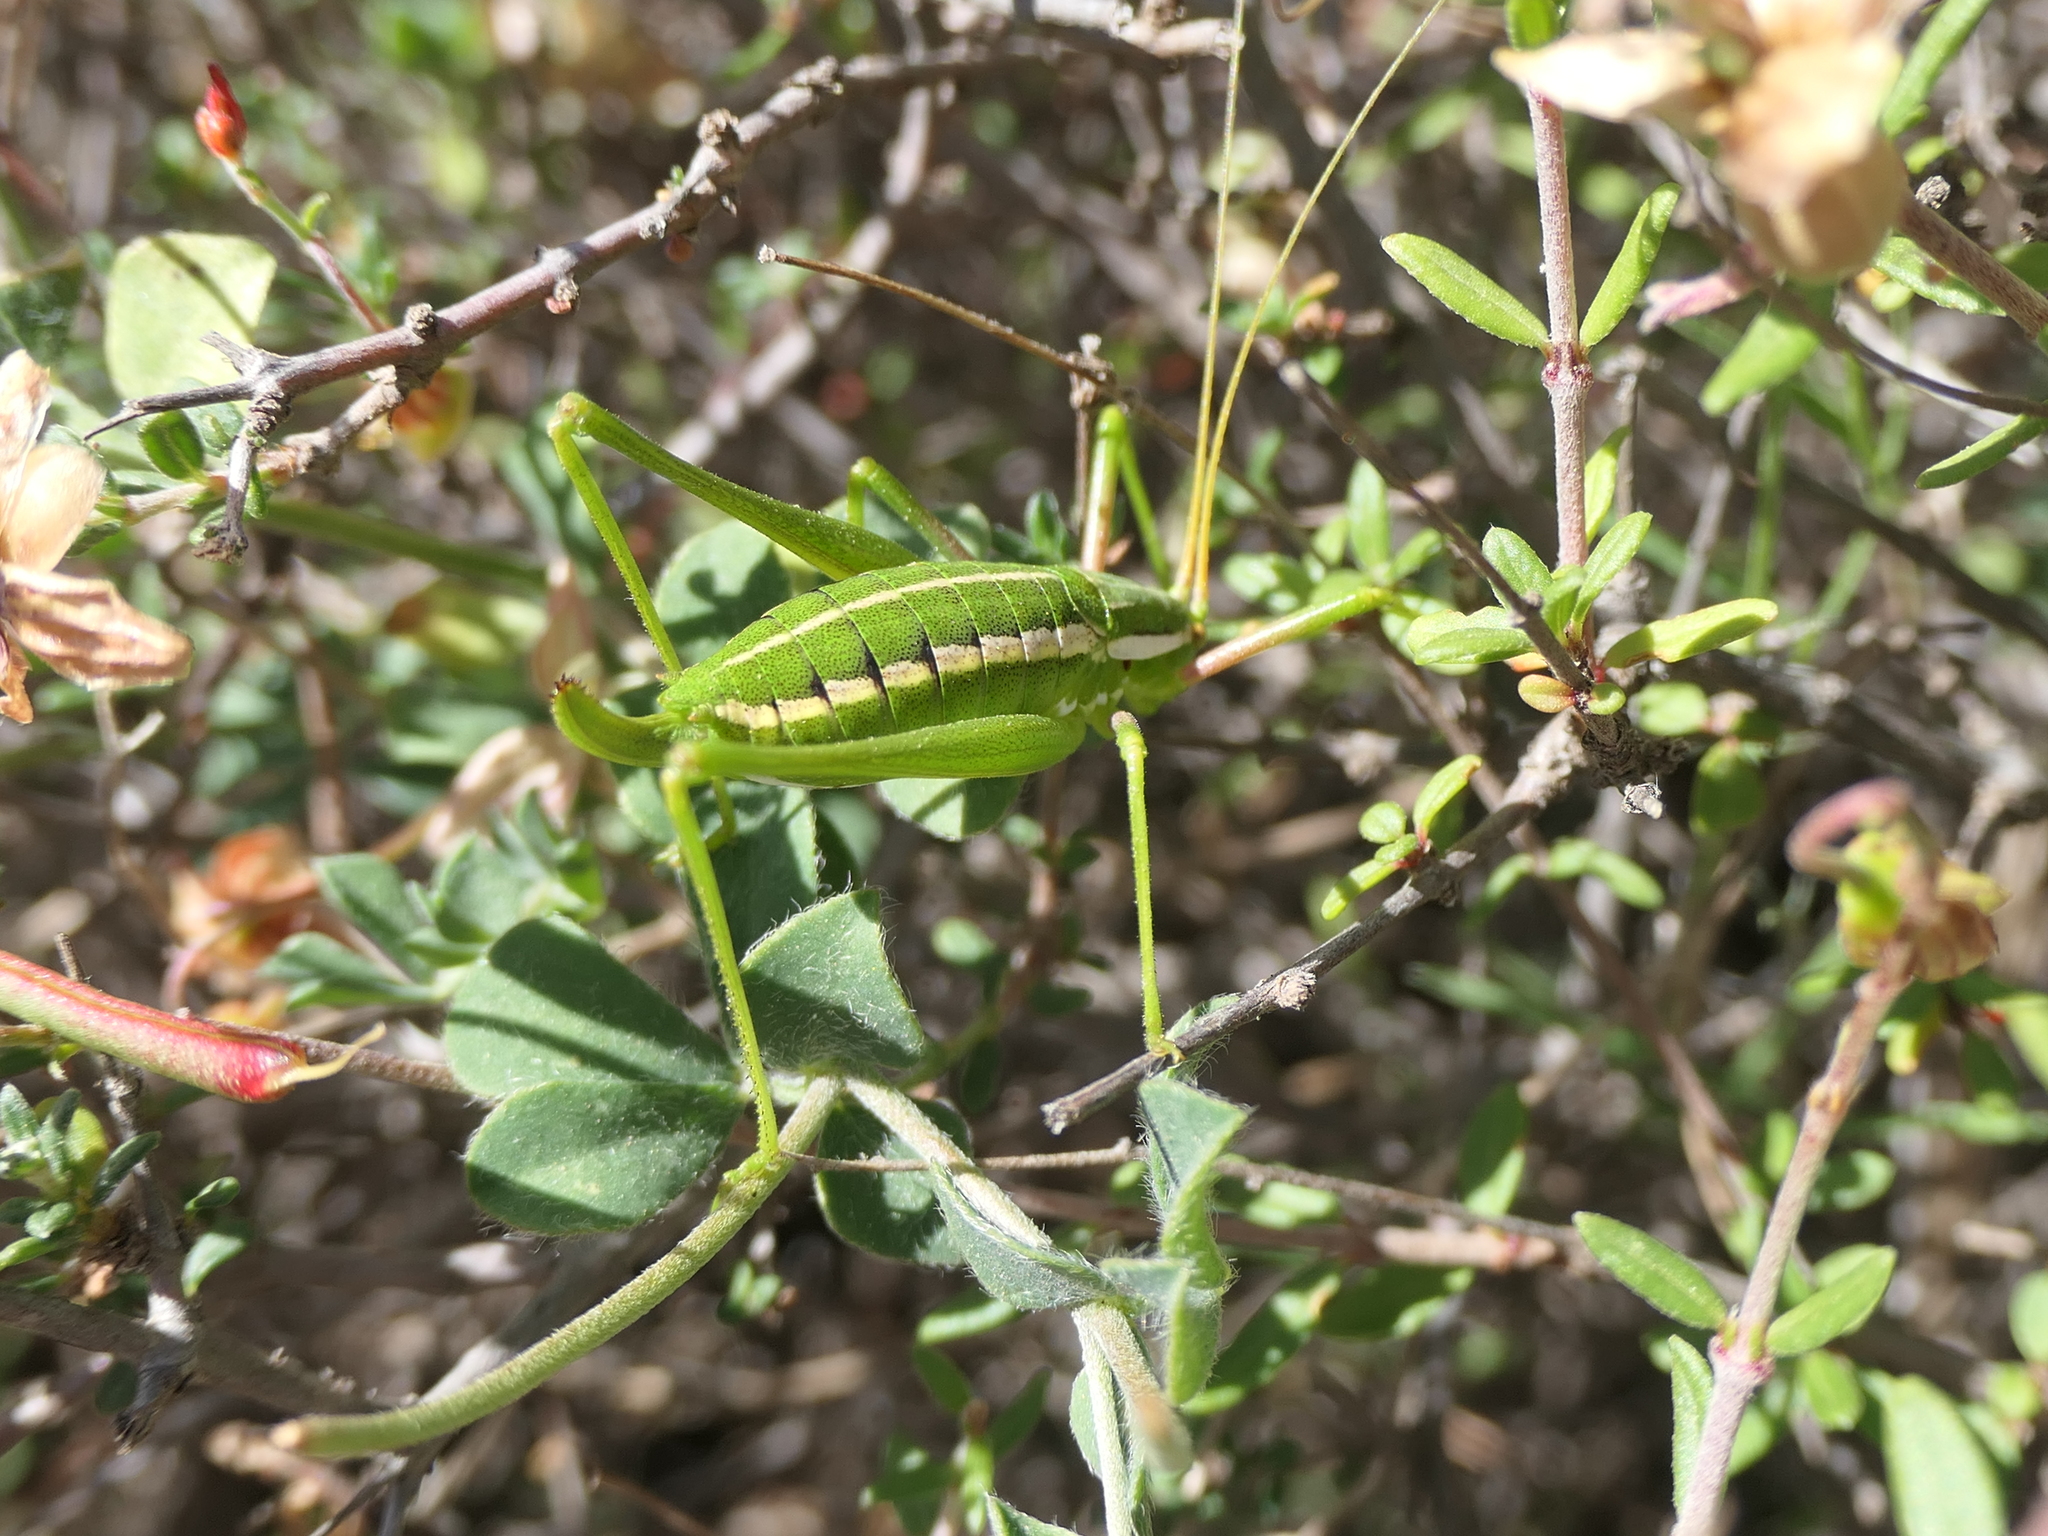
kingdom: Animalia
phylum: Arthropoda
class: Insecta
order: Orthoptera
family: Tettigoniidae
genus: Odontura
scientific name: Odontura aspericauda
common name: Iberian striped bush-cricket
